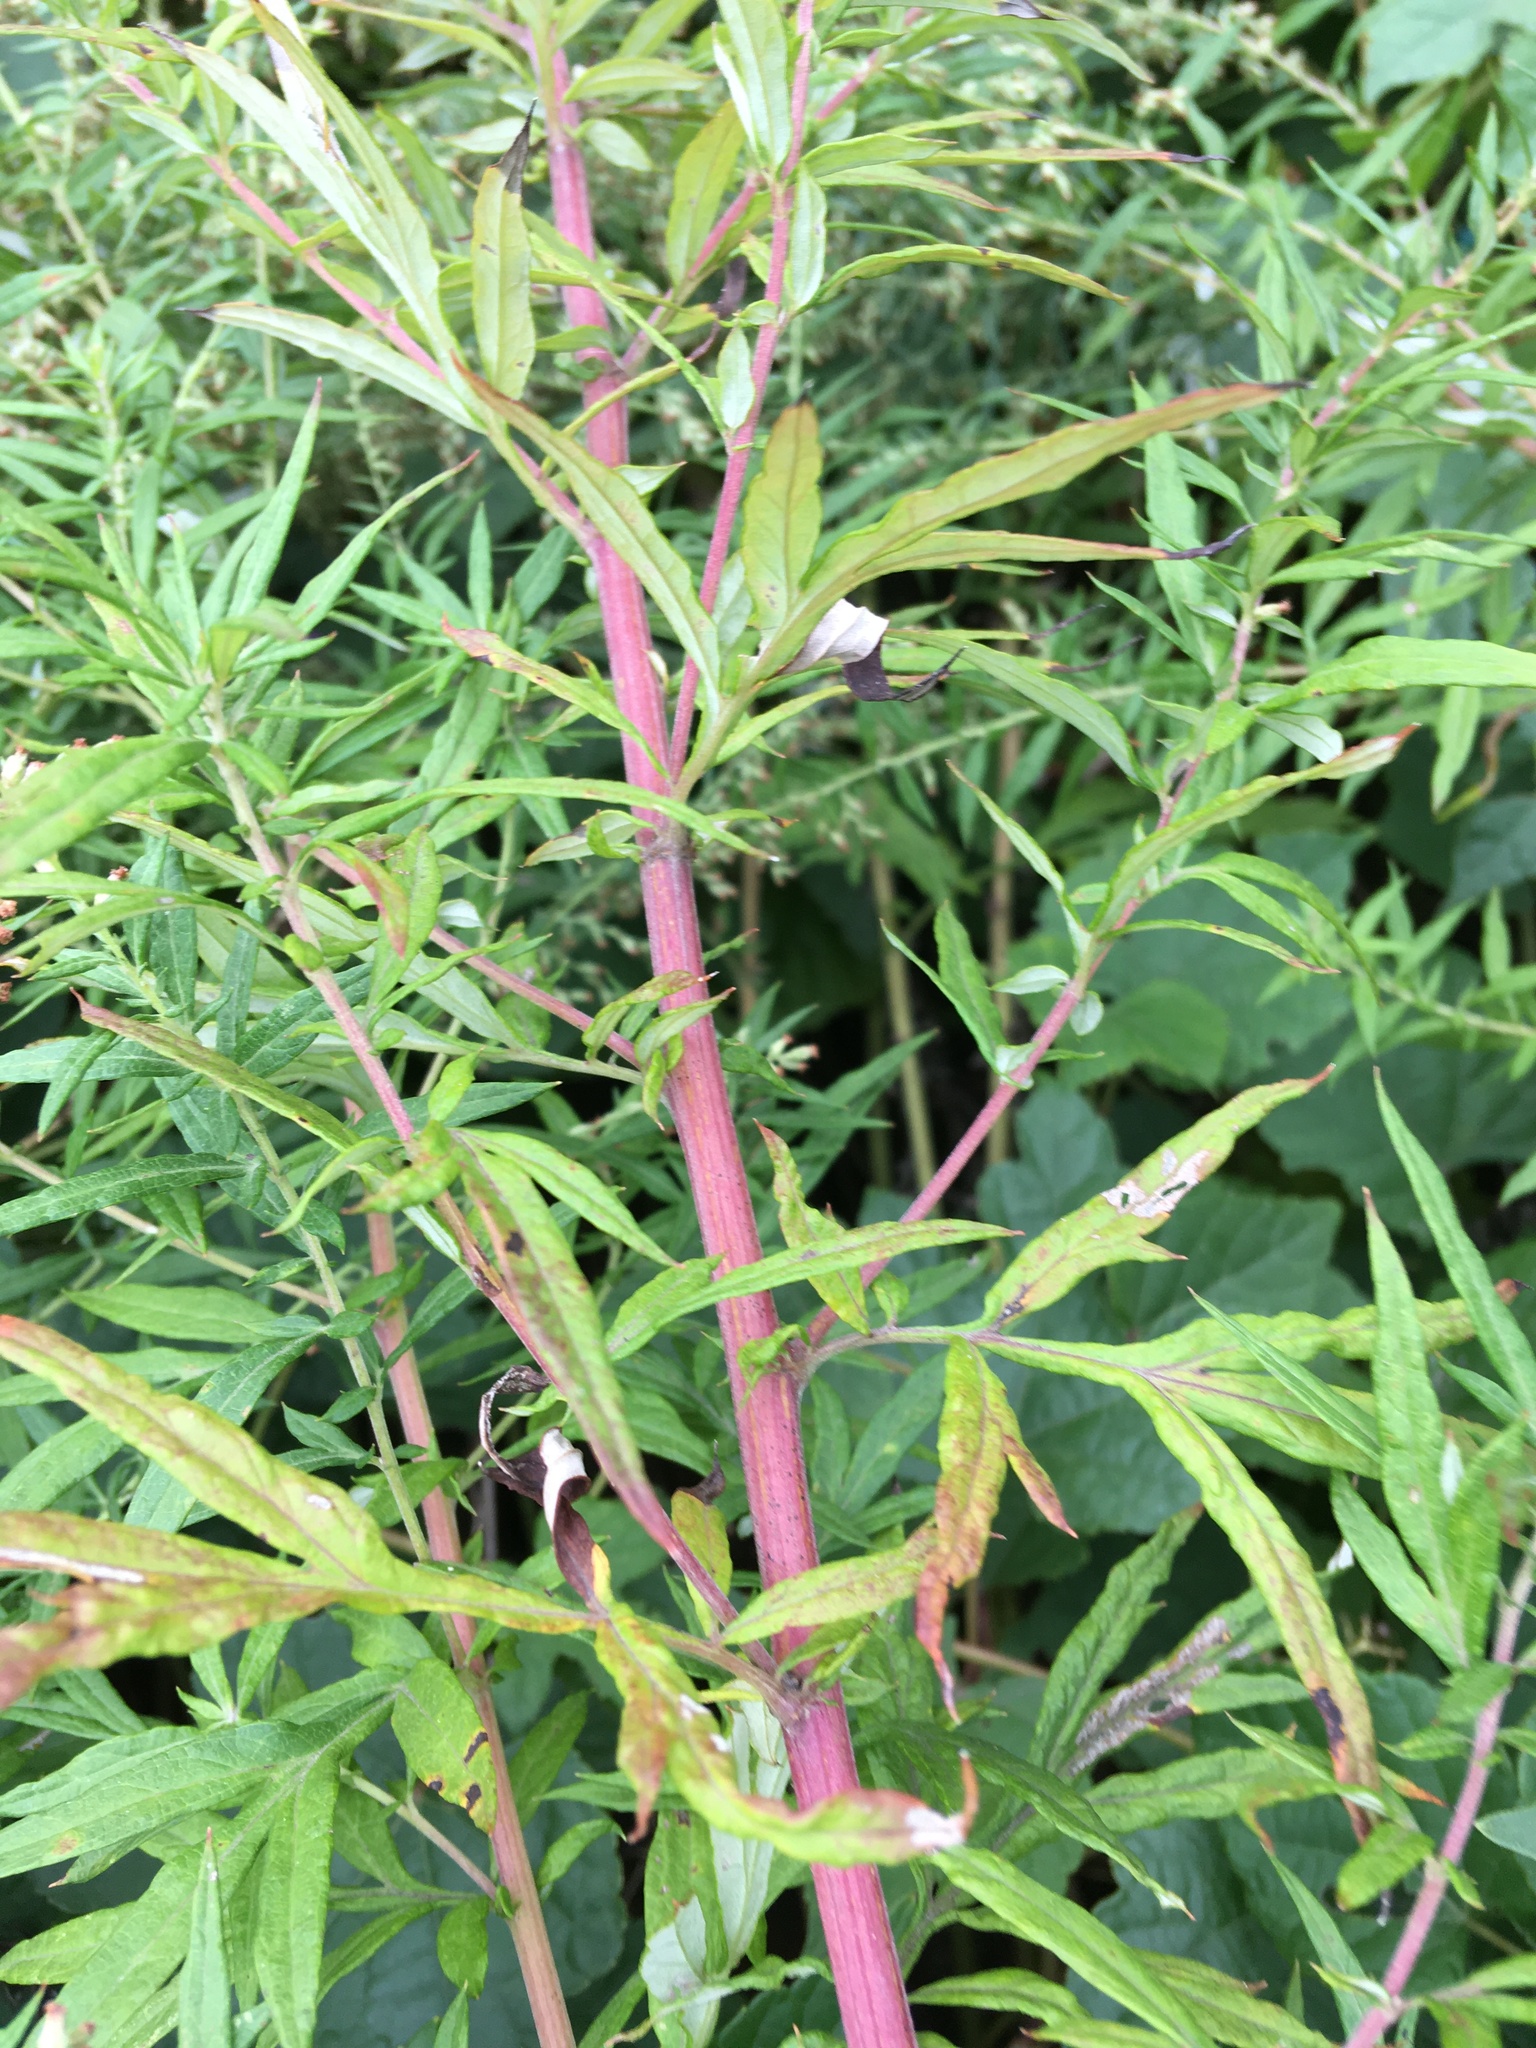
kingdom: Plantae
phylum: Tracheophyta
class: Magnoliopsida
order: Asterales
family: Asteraceae
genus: Artemisia
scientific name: Artemisia vulgaris
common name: Mugwort
